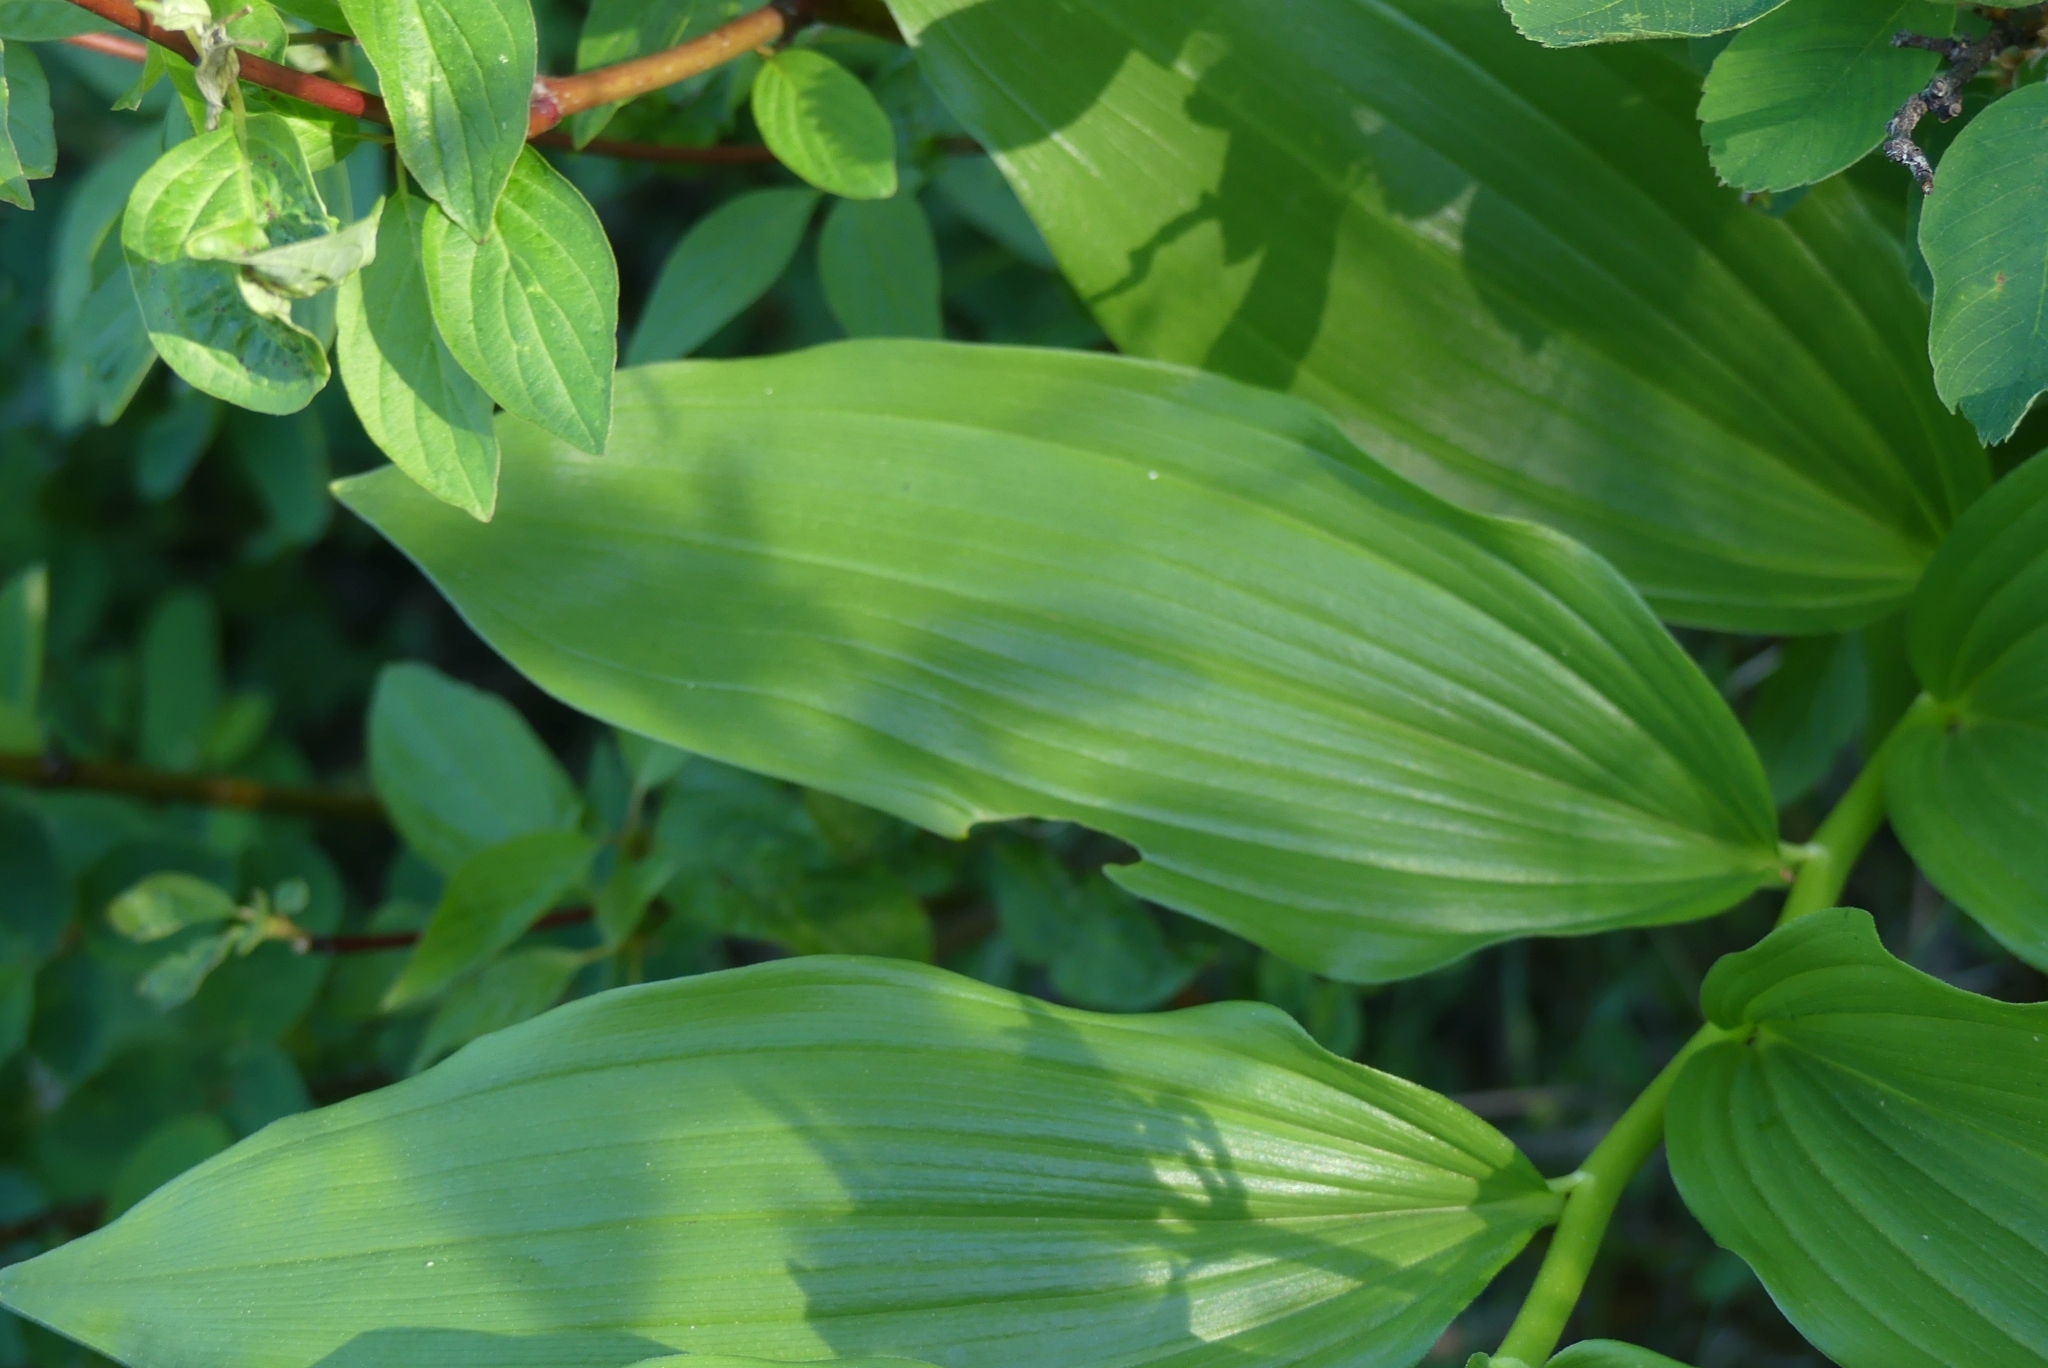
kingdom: Plantae
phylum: Tracheophyta
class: Liliopsida
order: Asparagales
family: Asparagaceae
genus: Maianthemum
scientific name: Maianthemum racemosum
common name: False spikenard
